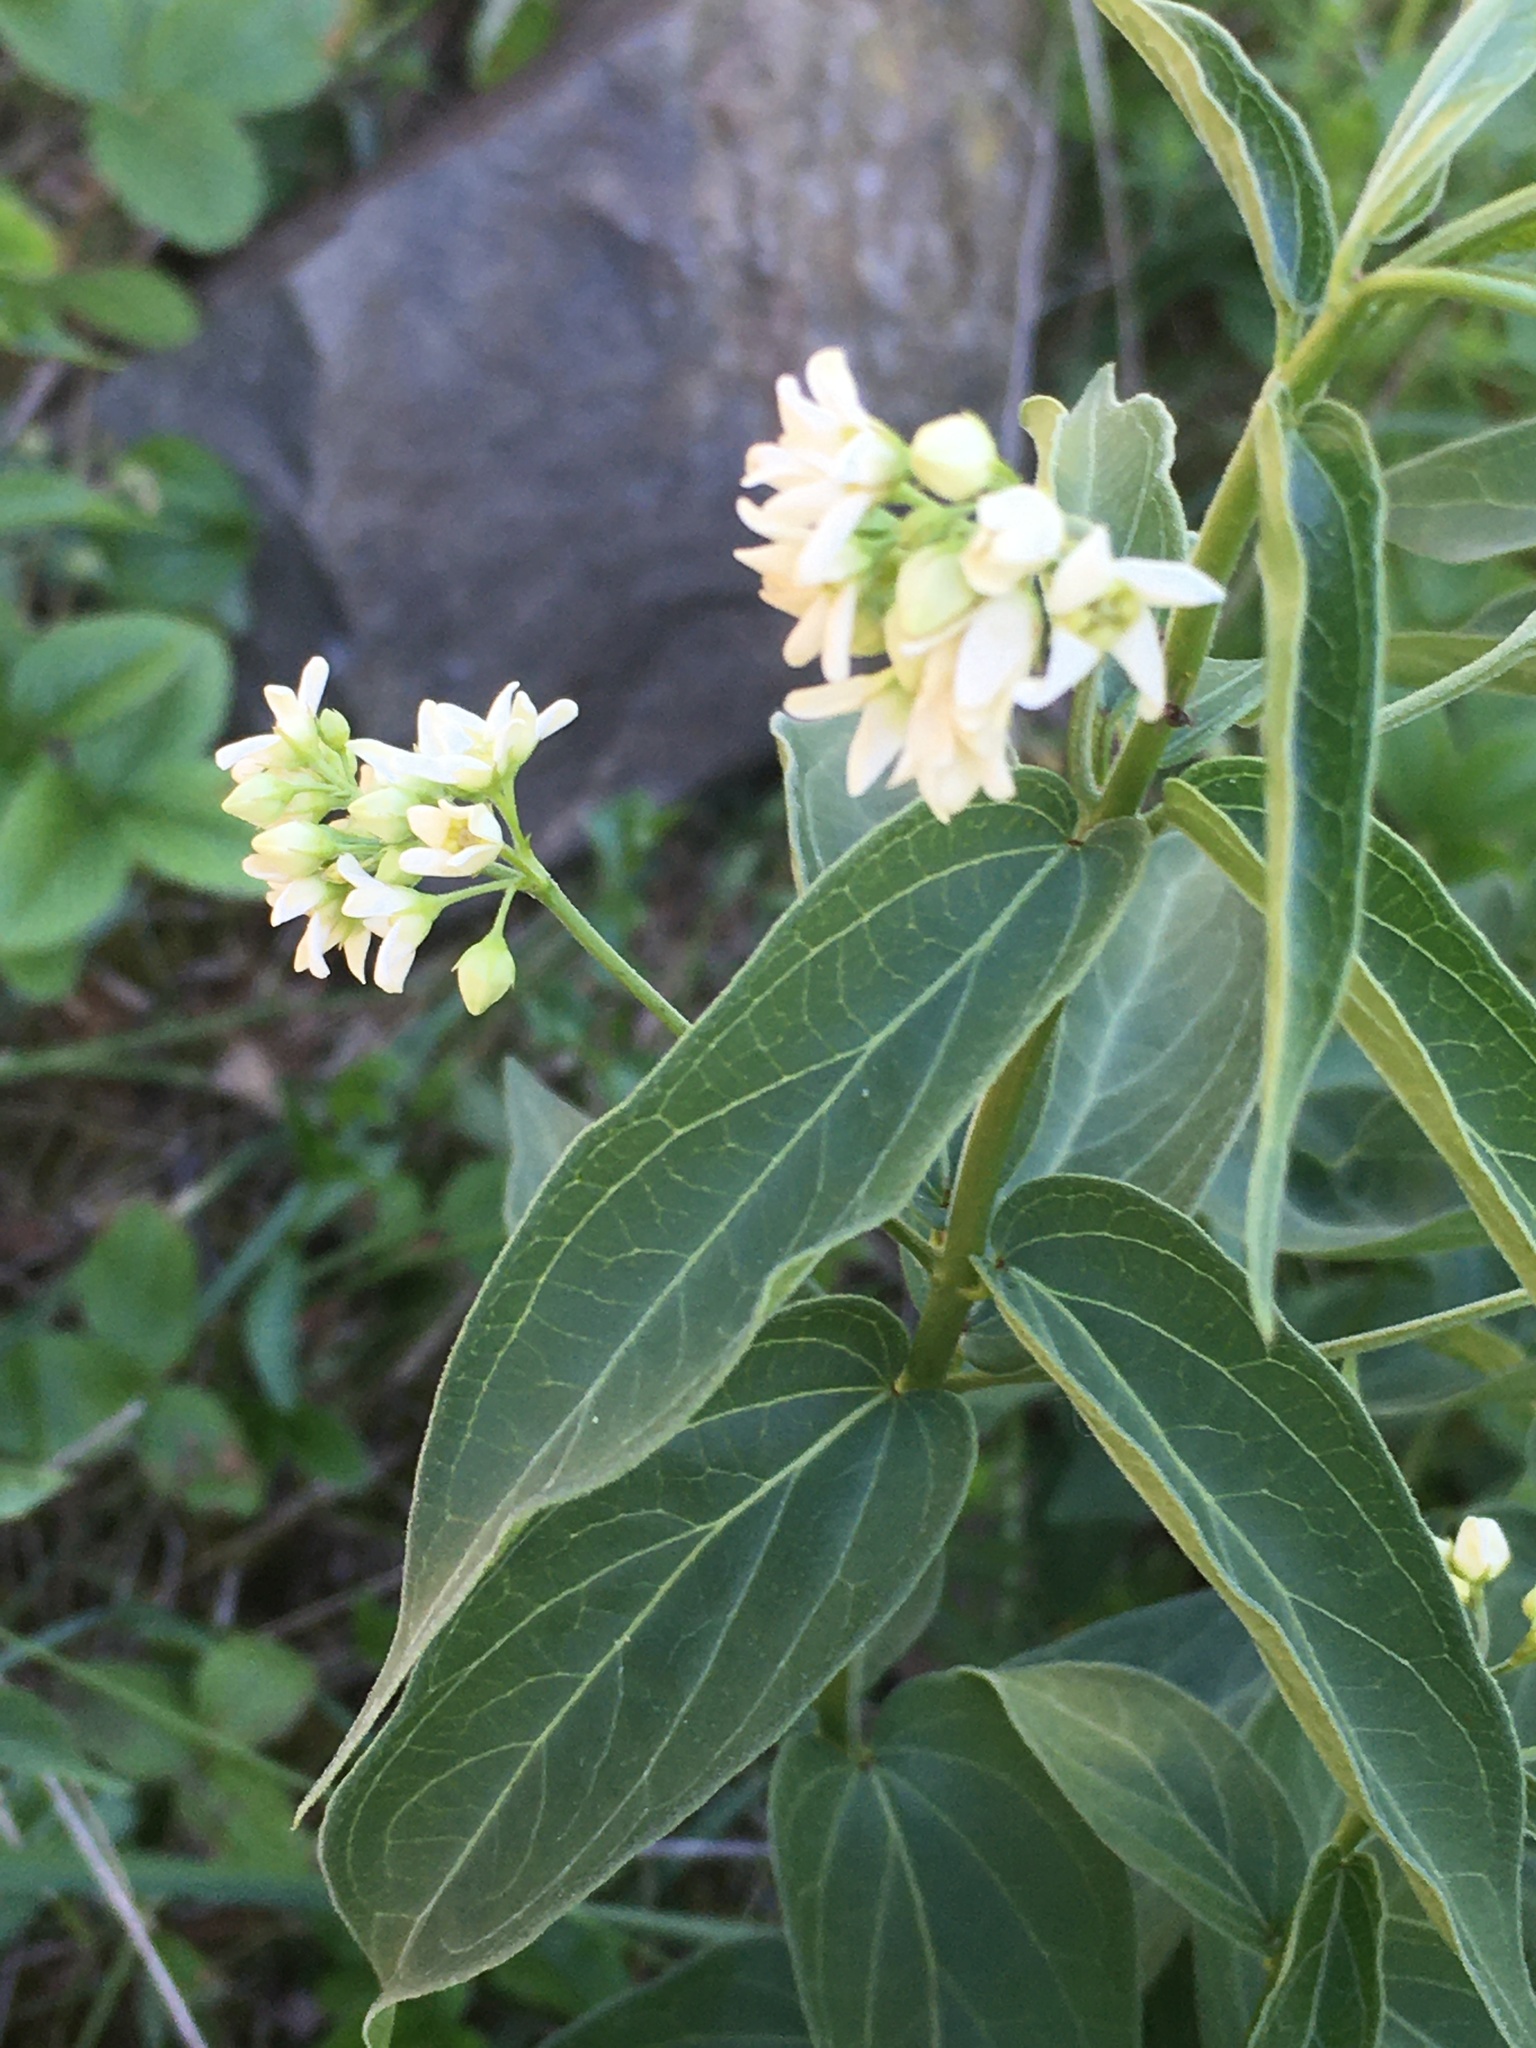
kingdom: Plantae
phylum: Tracheophyta
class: Magnoliopsida
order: Gentianales
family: Apocynaceae
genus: Vincetoxicum
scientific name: Vincetoxicum hirundinaria
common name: White swallowwort
